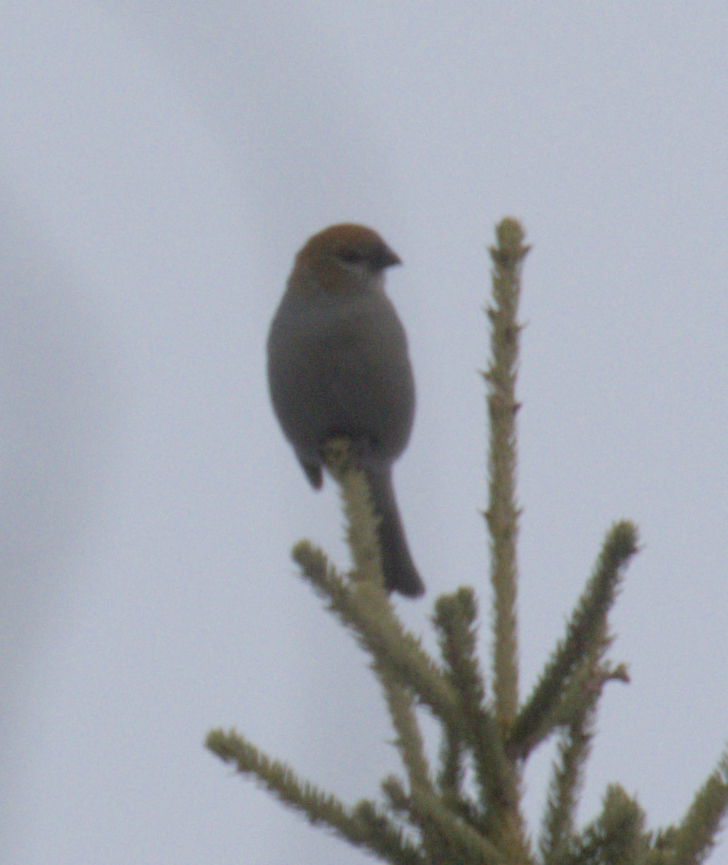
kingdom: Animalia
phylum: Chordata
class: Aves
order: Passeriformes
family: Fringillidae
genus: Pinicola
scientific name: Pinicola enucleator
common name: Pine grosbeak
